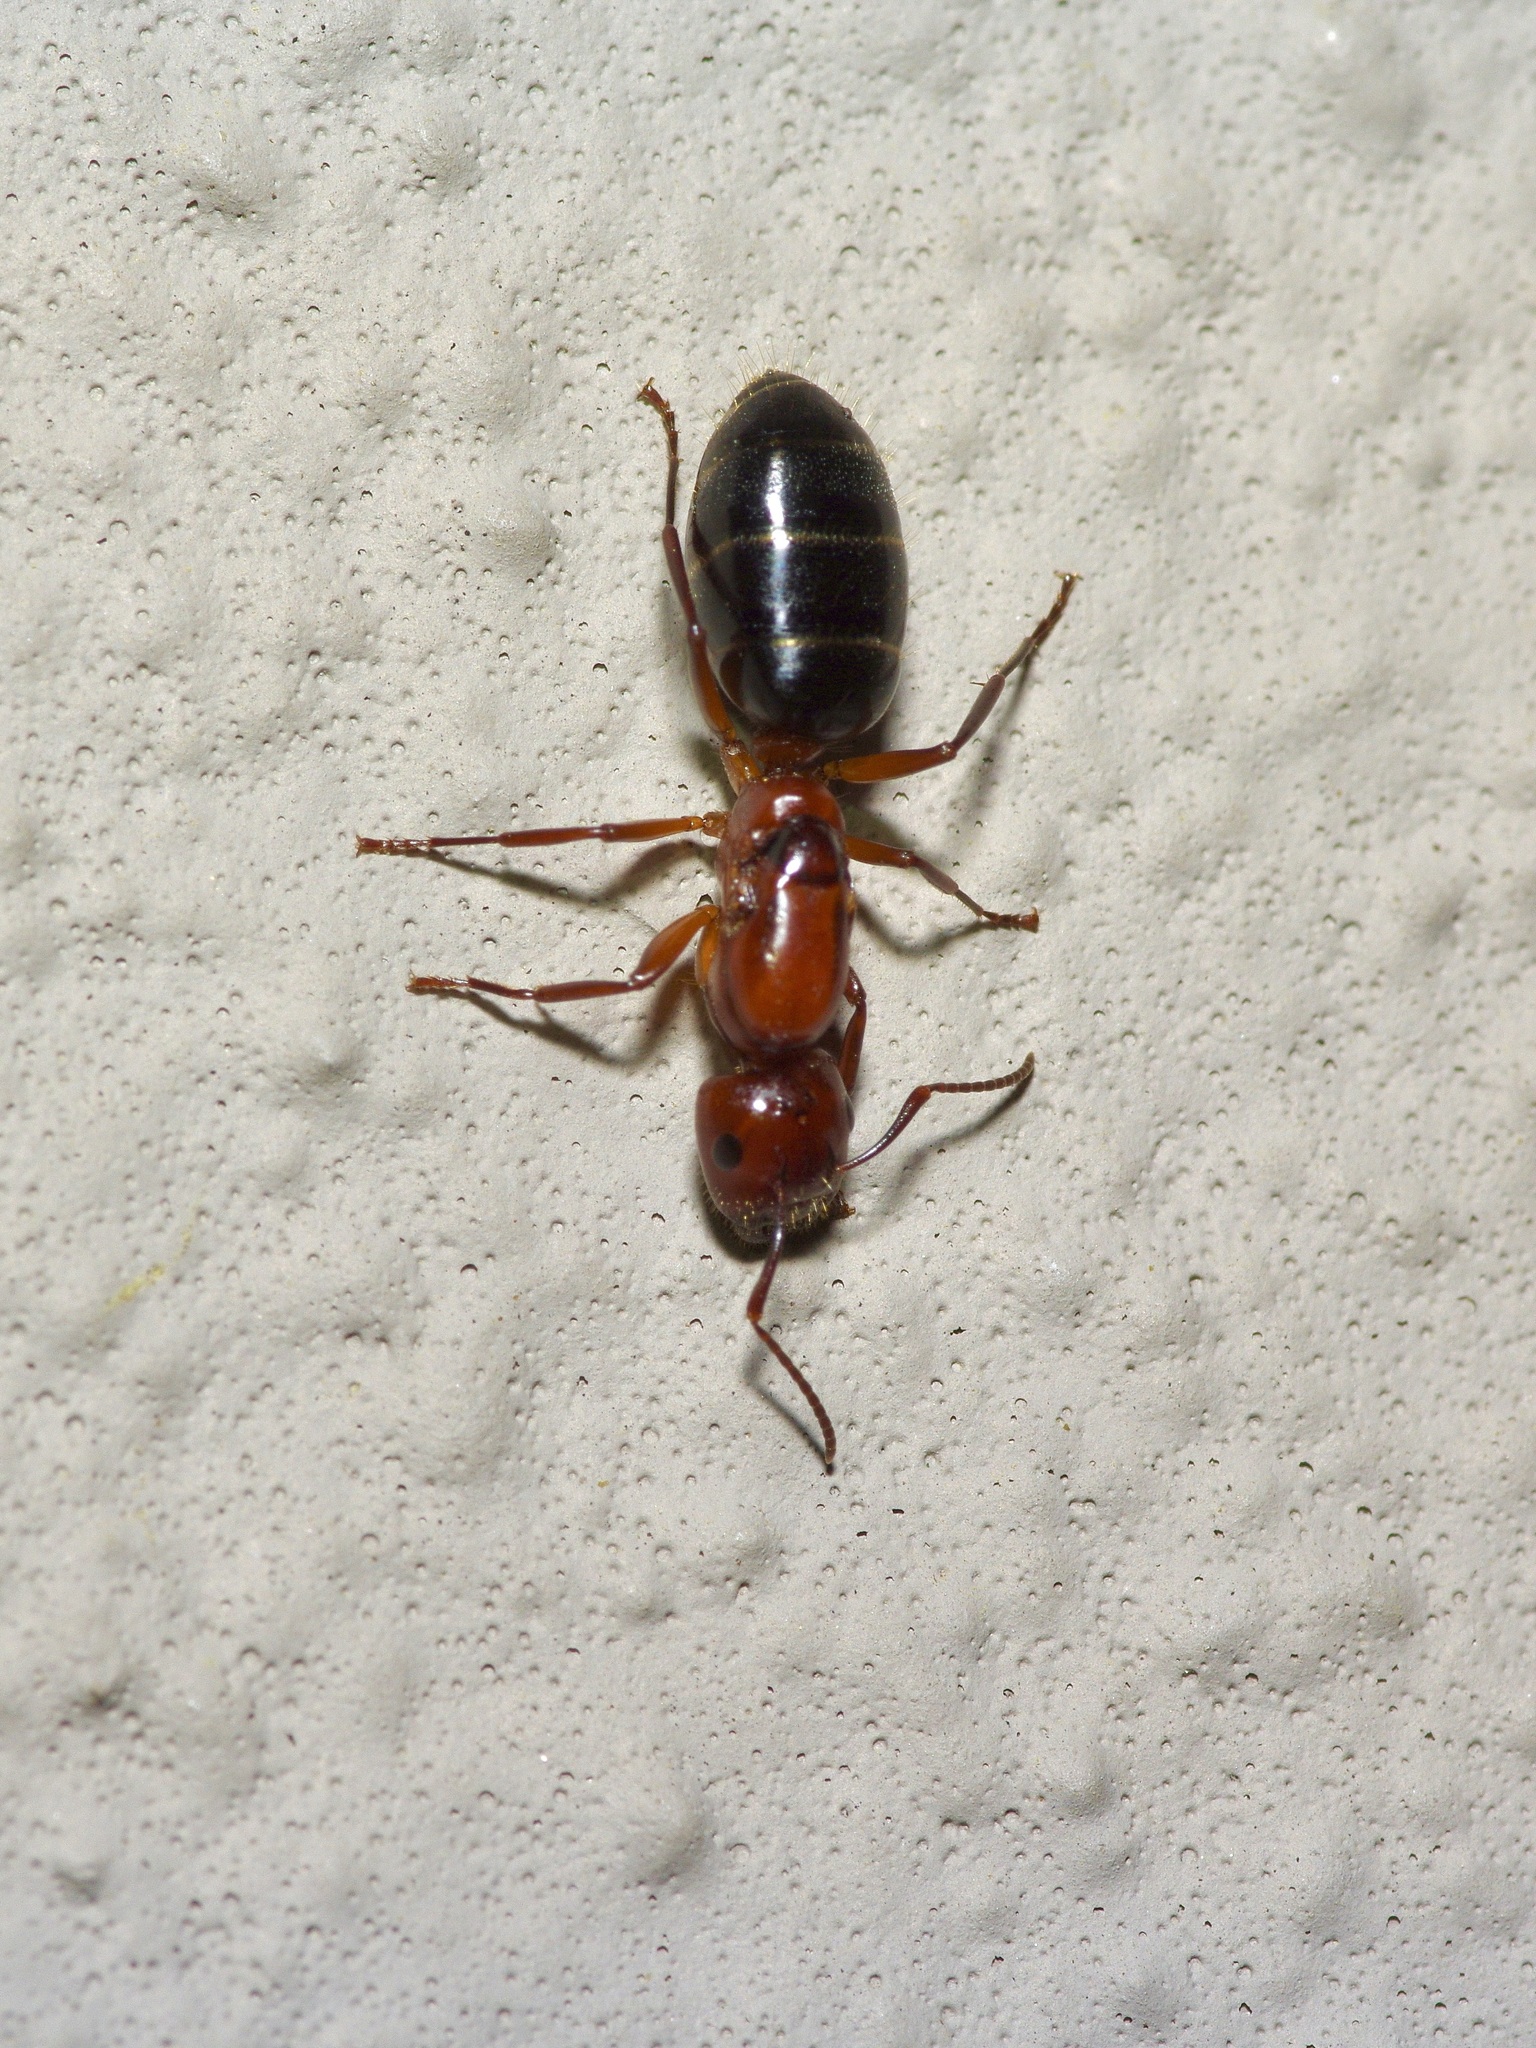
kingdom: Animalia
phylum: Arthropoda
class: Insecta
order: Hymenoptera
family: Formicidae
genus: Camponotus
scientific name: Camponotus discolor
